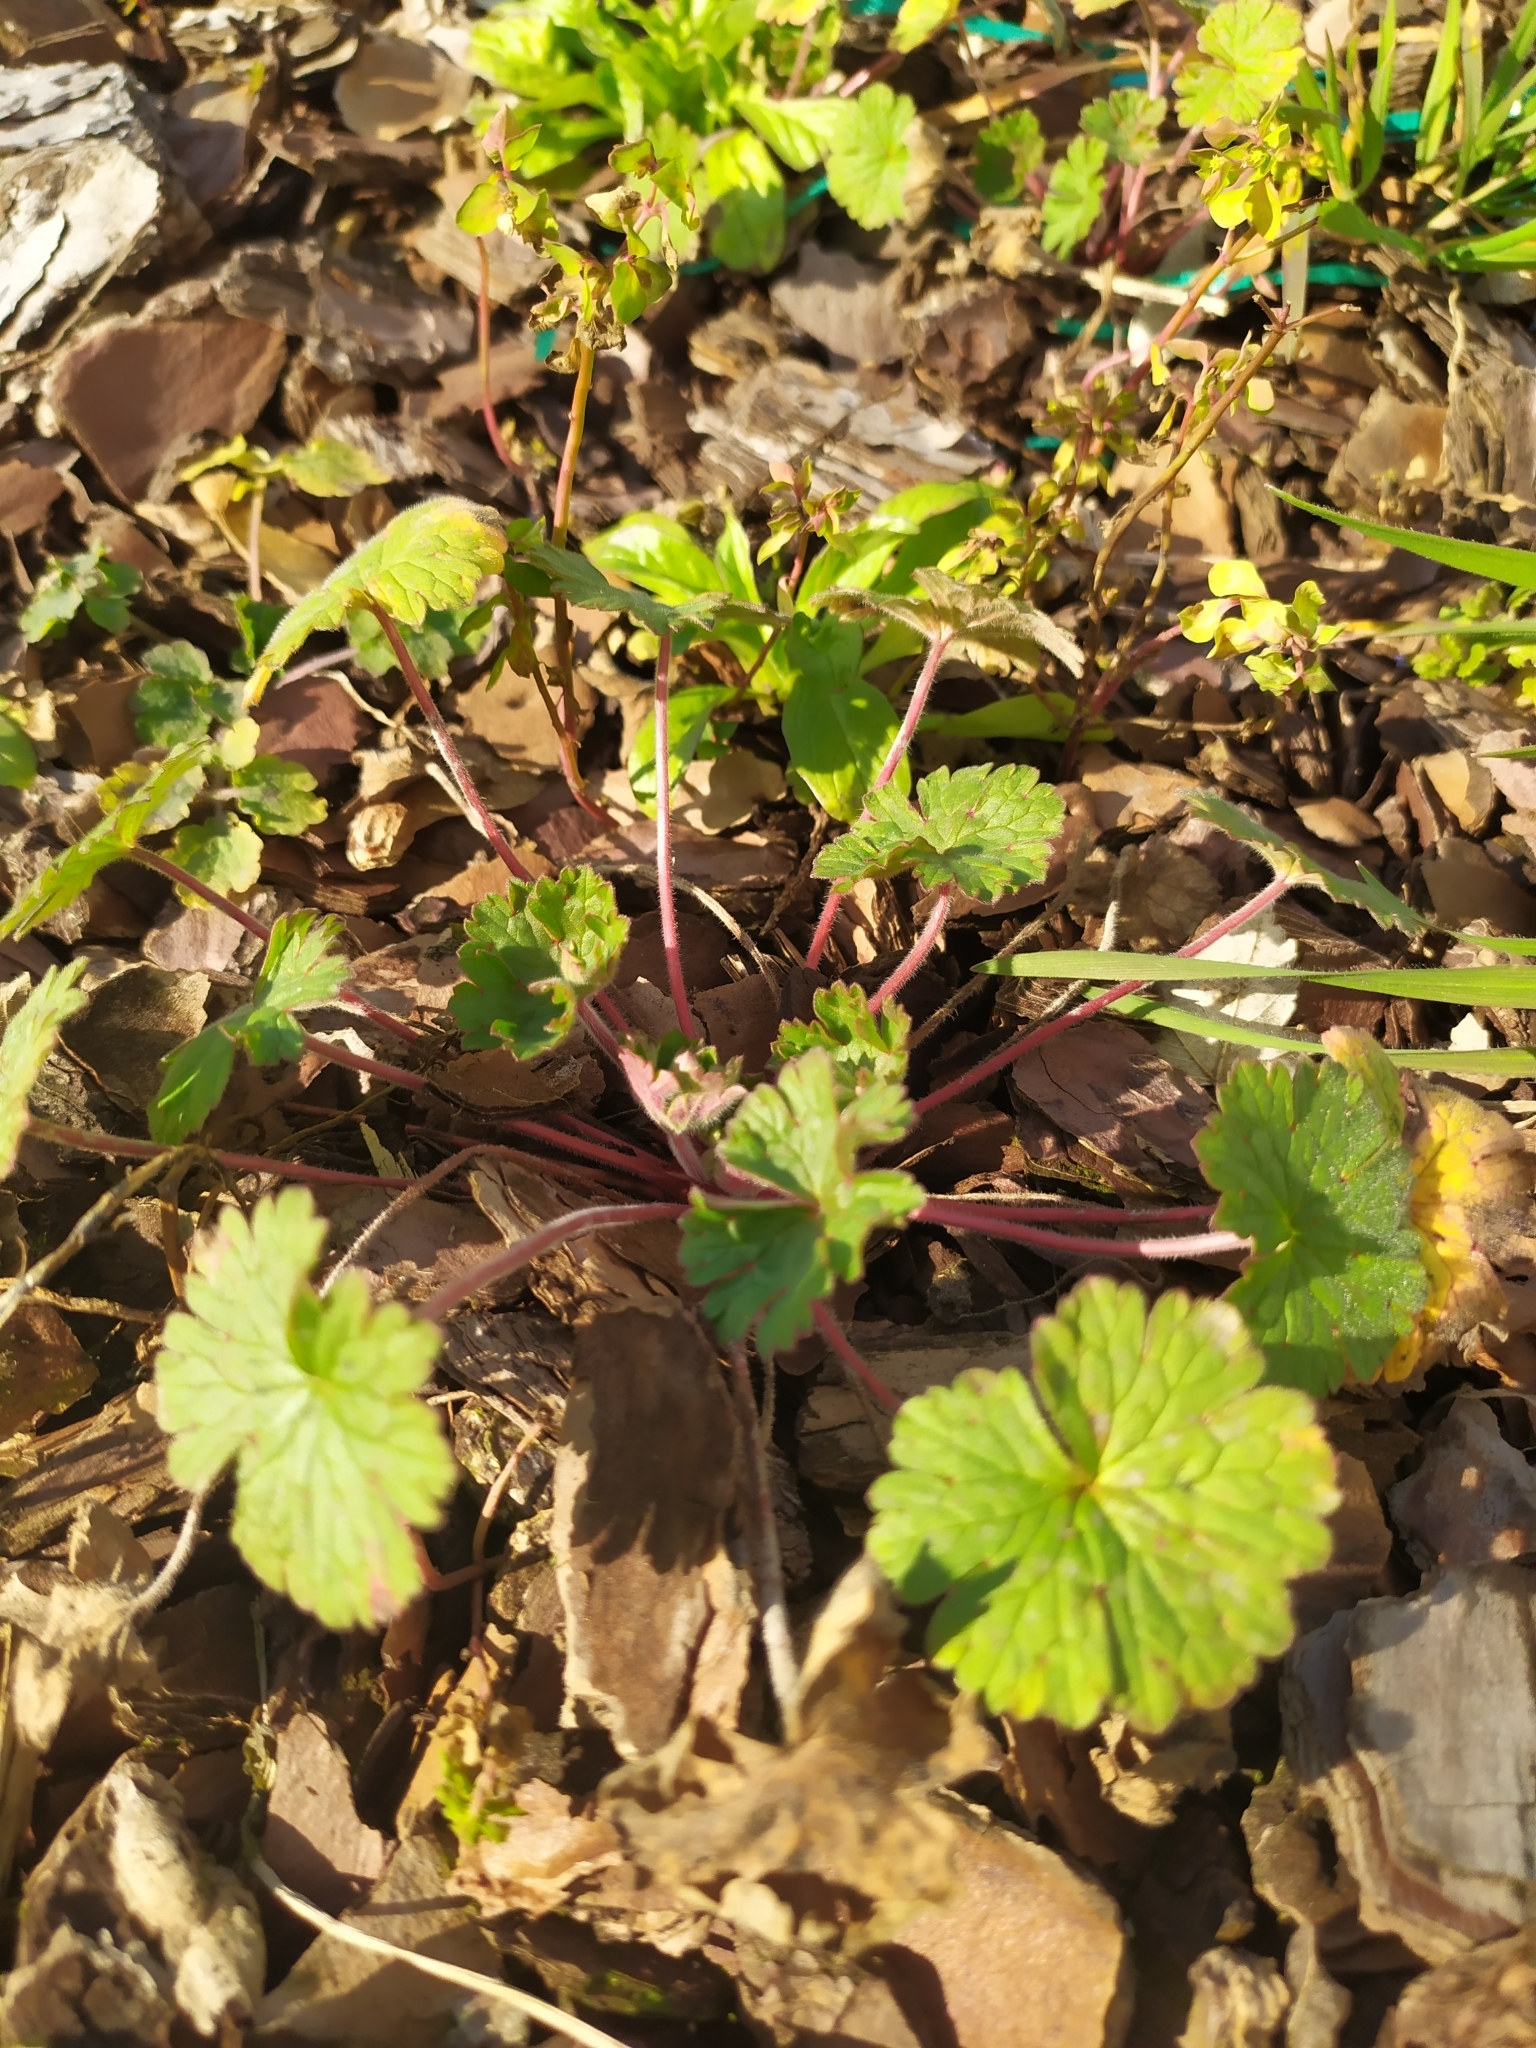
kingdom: Plantae
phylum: Tracheophyta
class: Magnoliopsida
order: Geraniales
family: Geraniaceae
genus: Geranium
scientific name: Geranium rotundifolium
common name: Round-leaved crane's-bill
